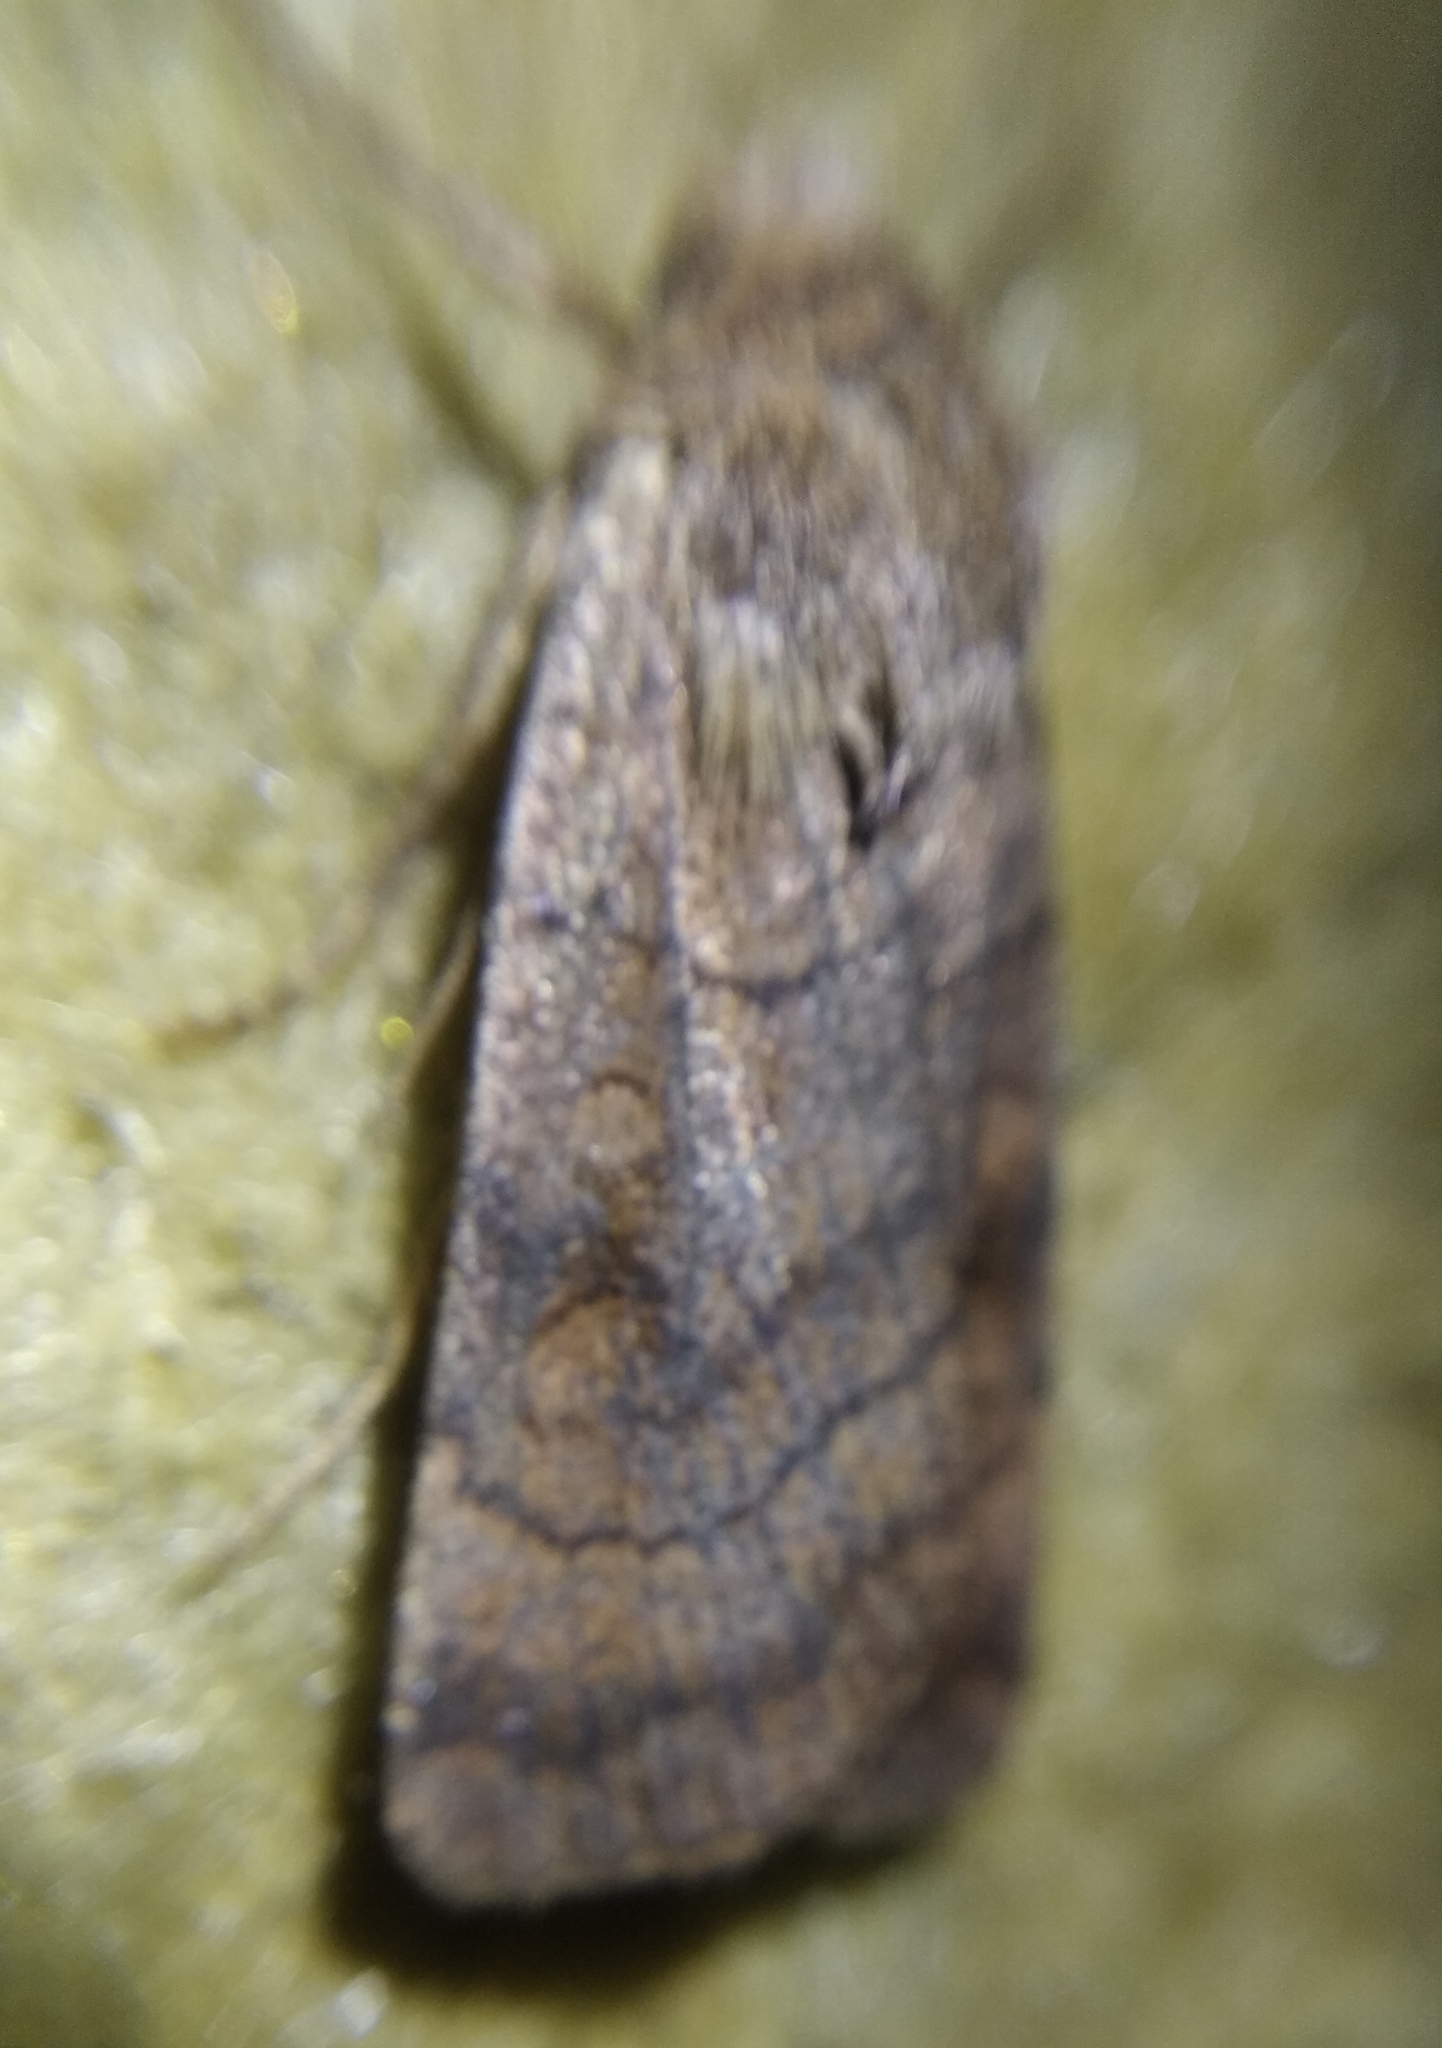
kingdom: Animalia
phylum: Arthropoda
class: Insecta
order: Lepidoptera
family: Noctuidae
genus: Xestia
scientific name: Xestia sexstrigata
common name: Six-striped rustic
